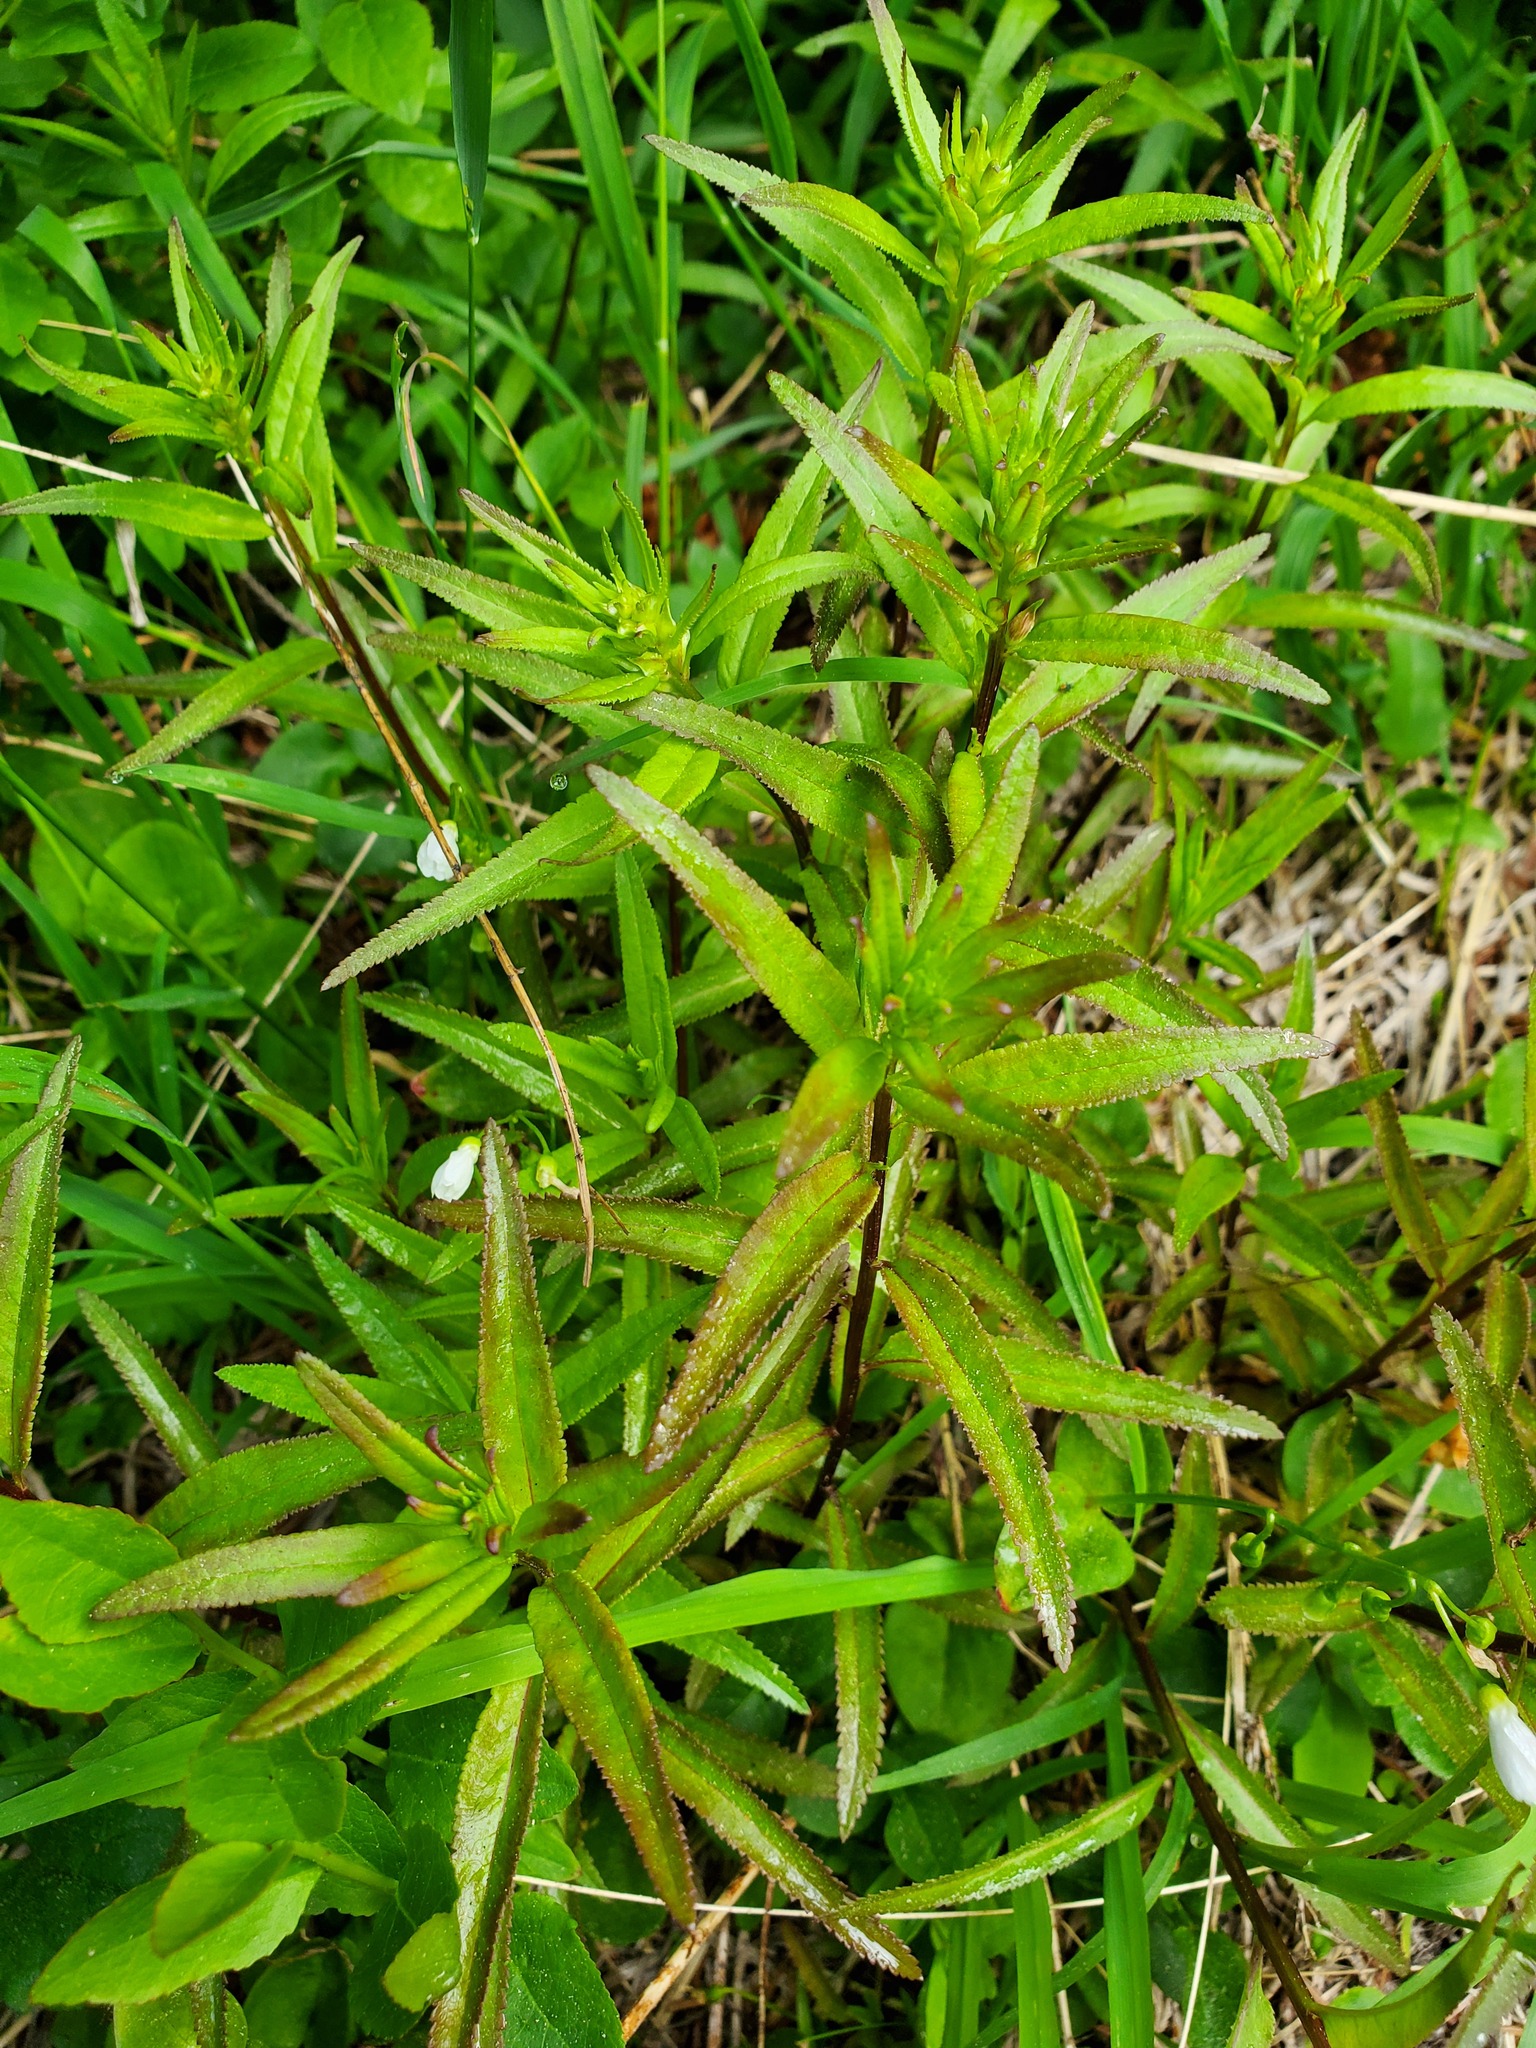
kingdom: Plantae
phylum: Tracheophyta
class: Magnoliopsida
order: Lamiales
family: Orobanchaceae
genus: Pedicularis
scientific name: Pedicularis racemosa
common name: Leafy lousewort
